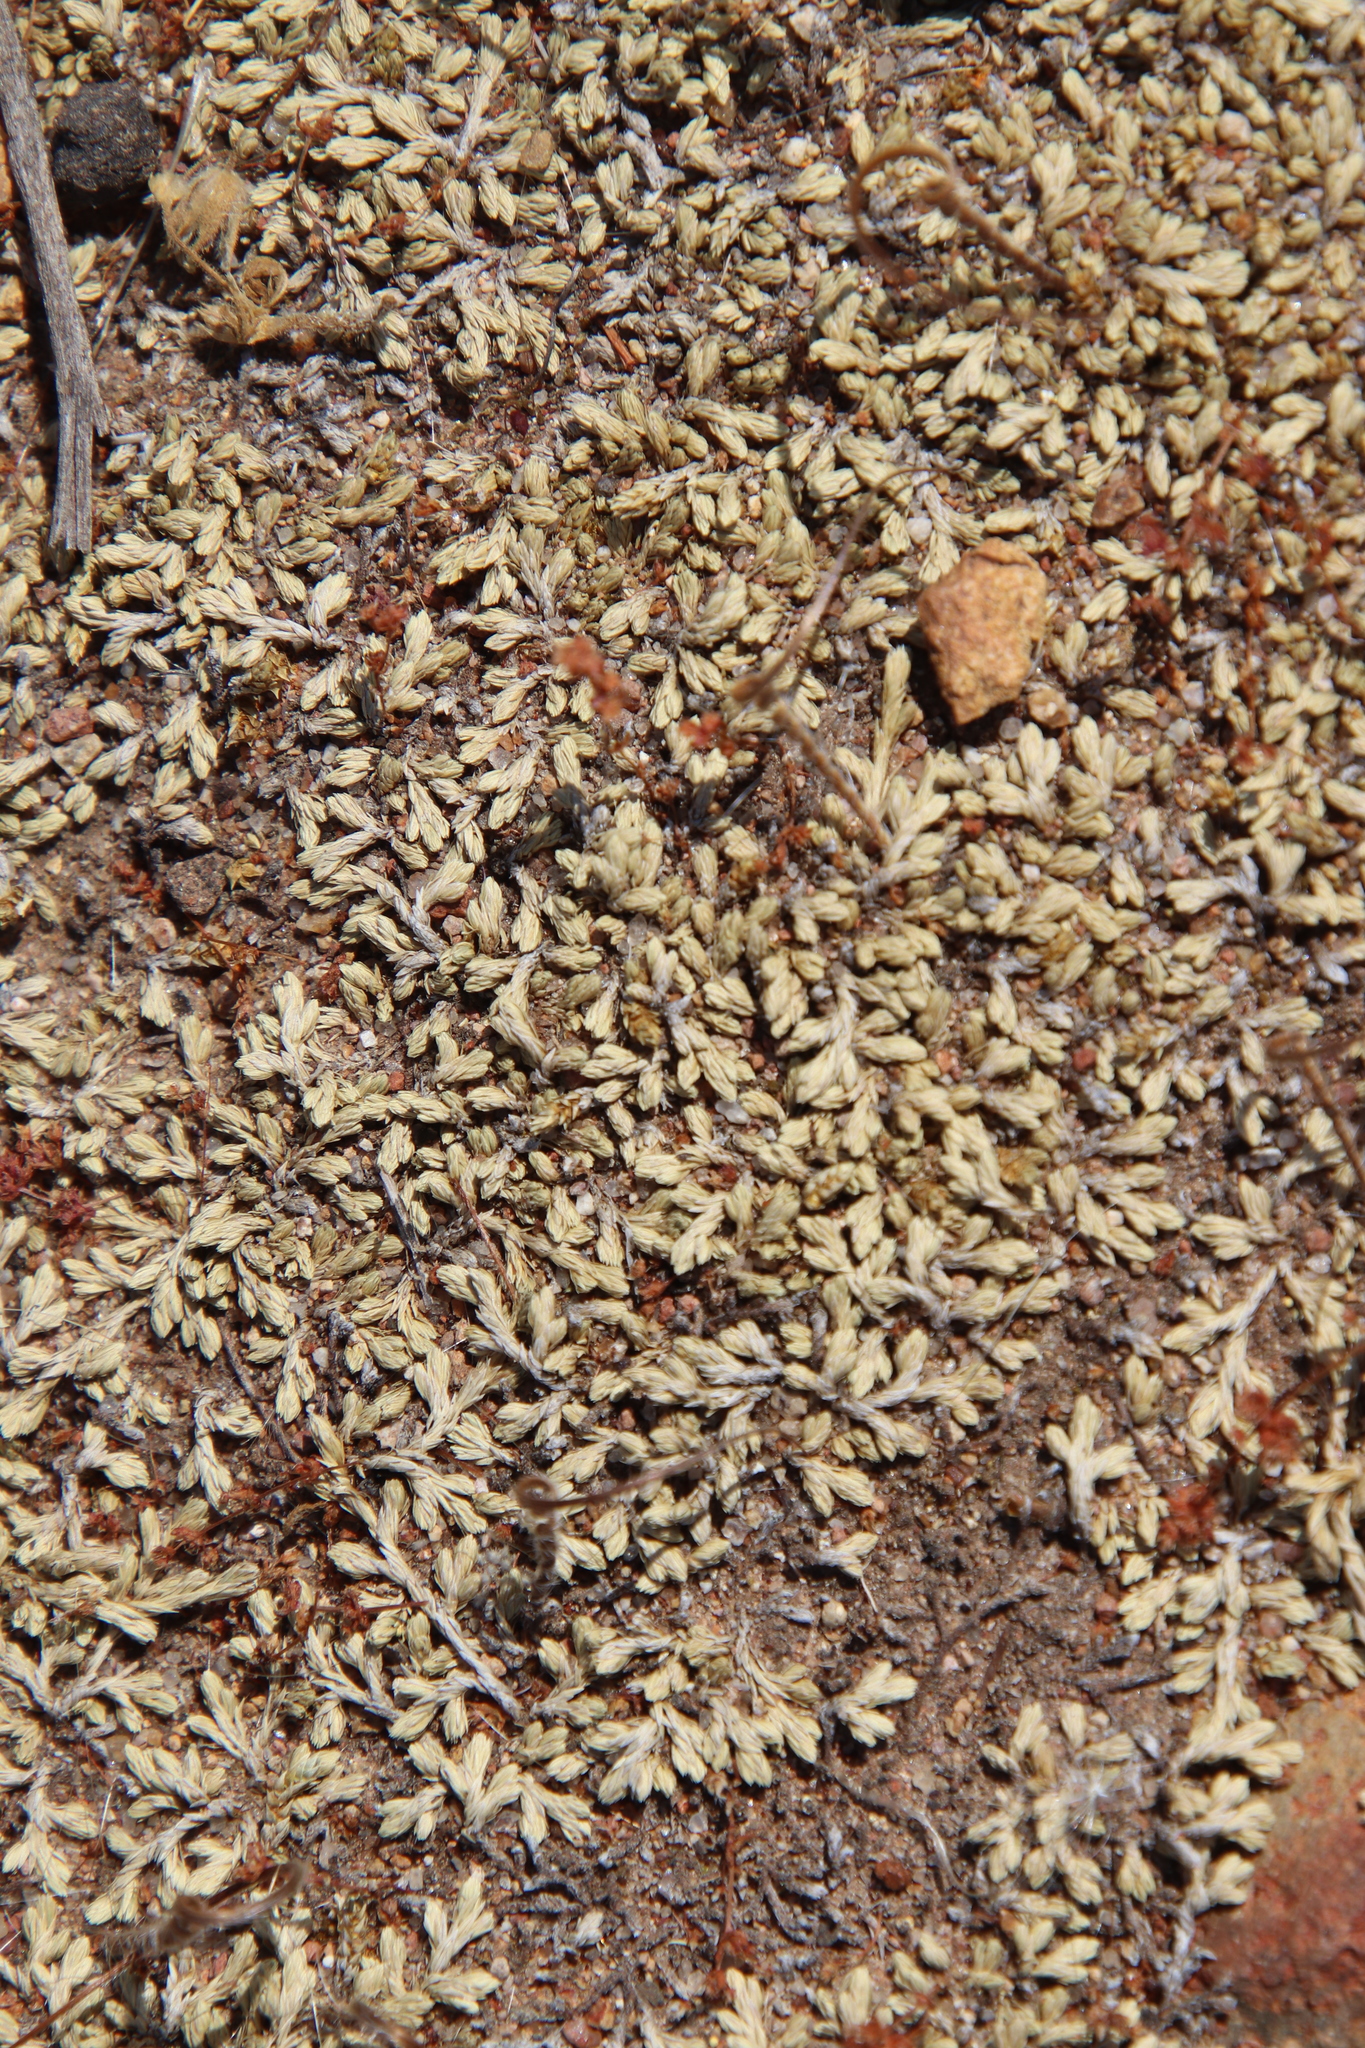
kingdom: Plantae
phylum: Tracheophyta
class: Lycopodiopsida
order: Selaginellales
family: Selaginellaceae
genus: Selaginella
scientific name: Selaginella cinerascens
